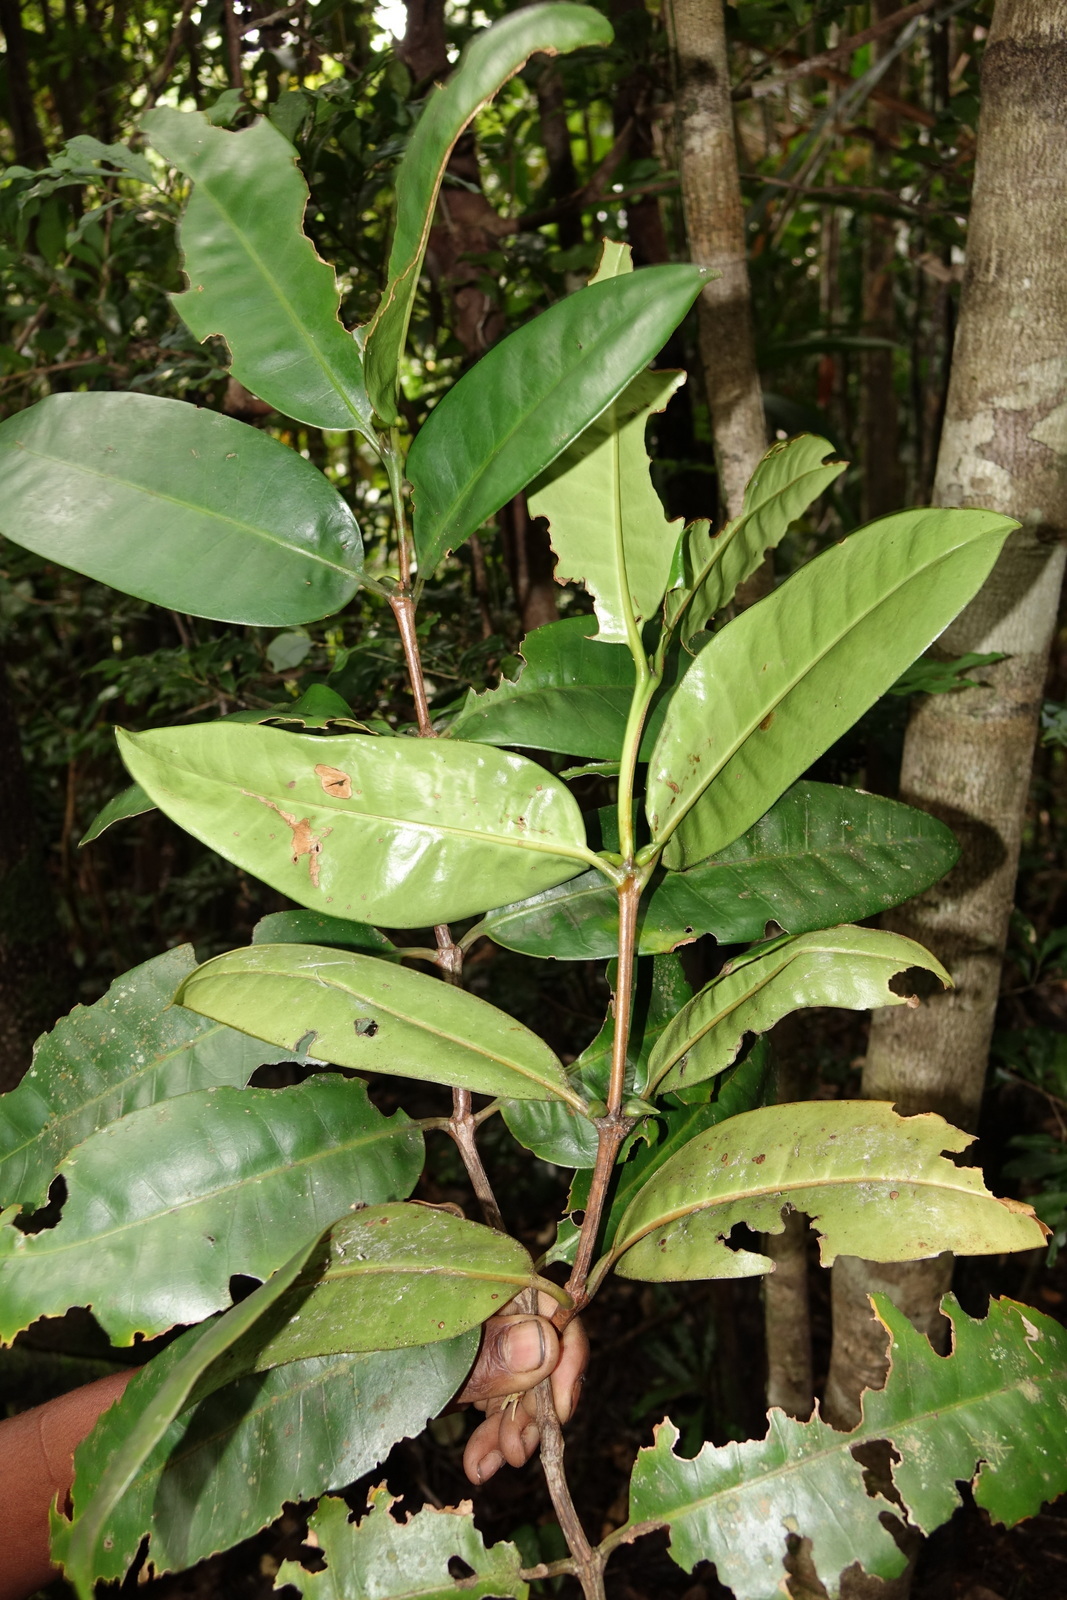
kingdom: Plantae
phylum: Tracheophyta
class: Magnoliopsida
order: Gentianales
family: Rubiaceae
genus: Chapelieria
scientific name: Chapelieria madagascariensis
